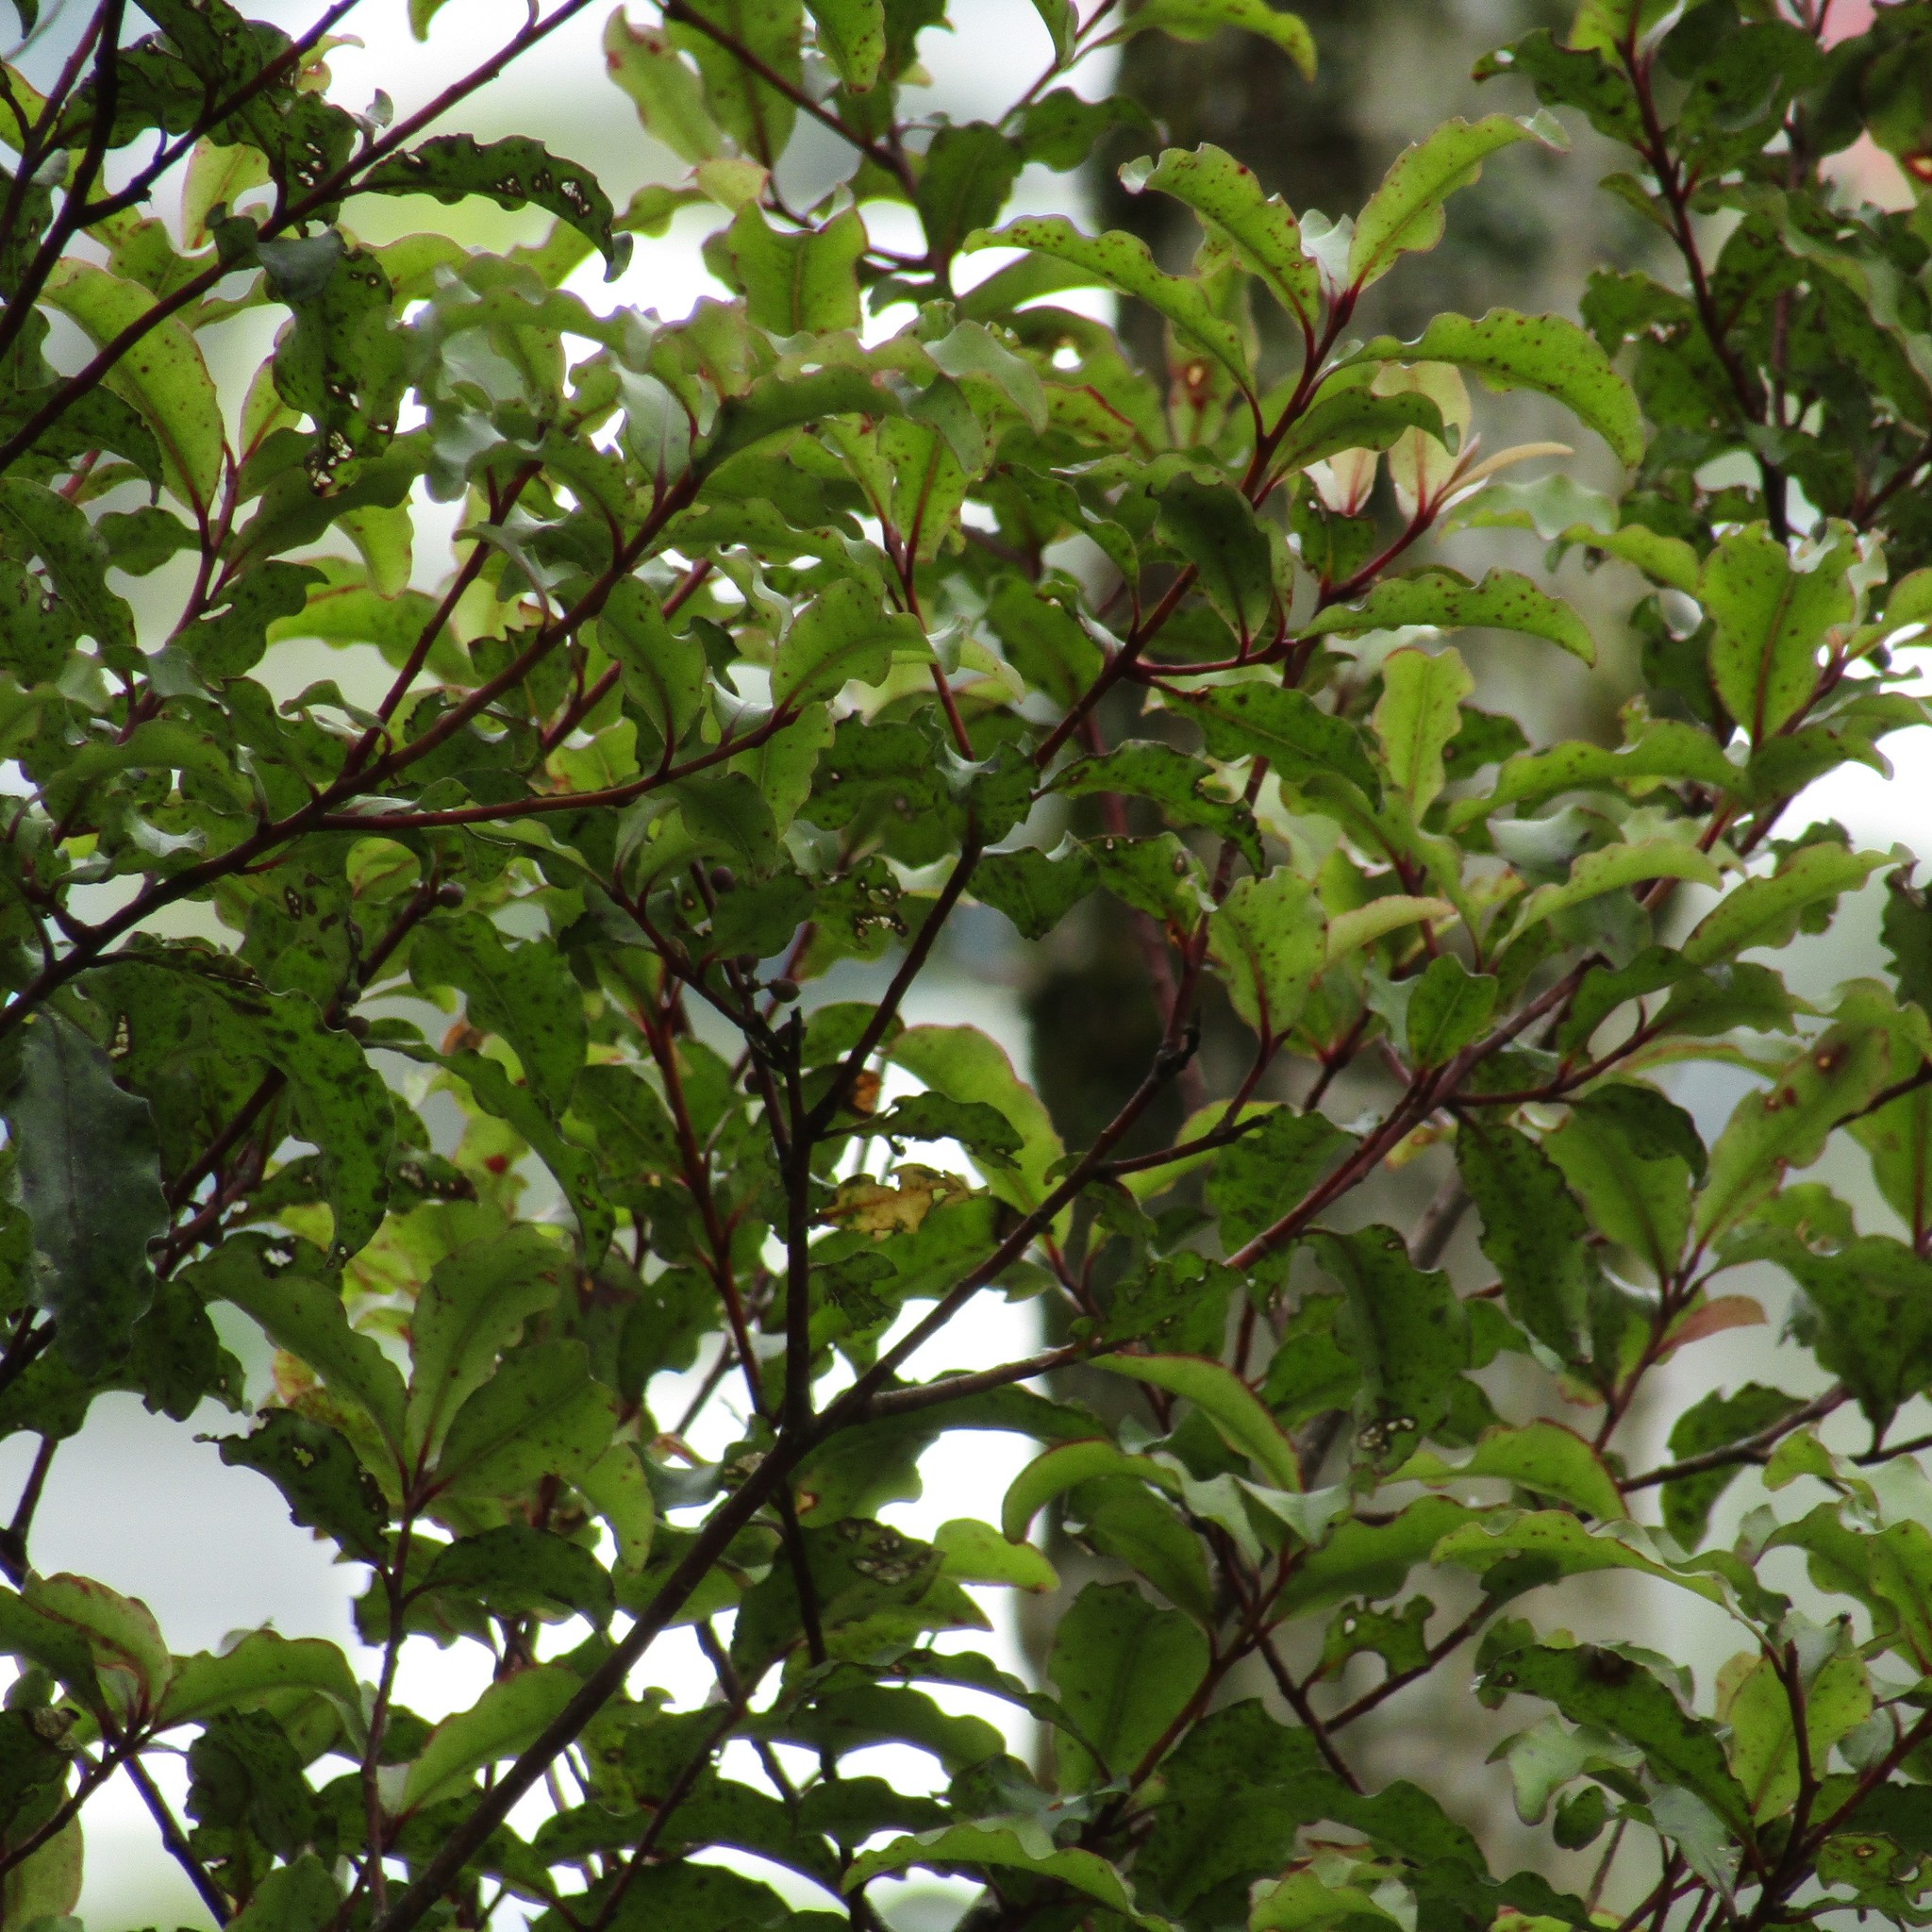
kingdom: Plantae
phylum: Tracheophyta
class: Magnoliopsida
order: Ericales
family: Primulaceae
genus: Myrsine
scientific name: Myrsine australis
